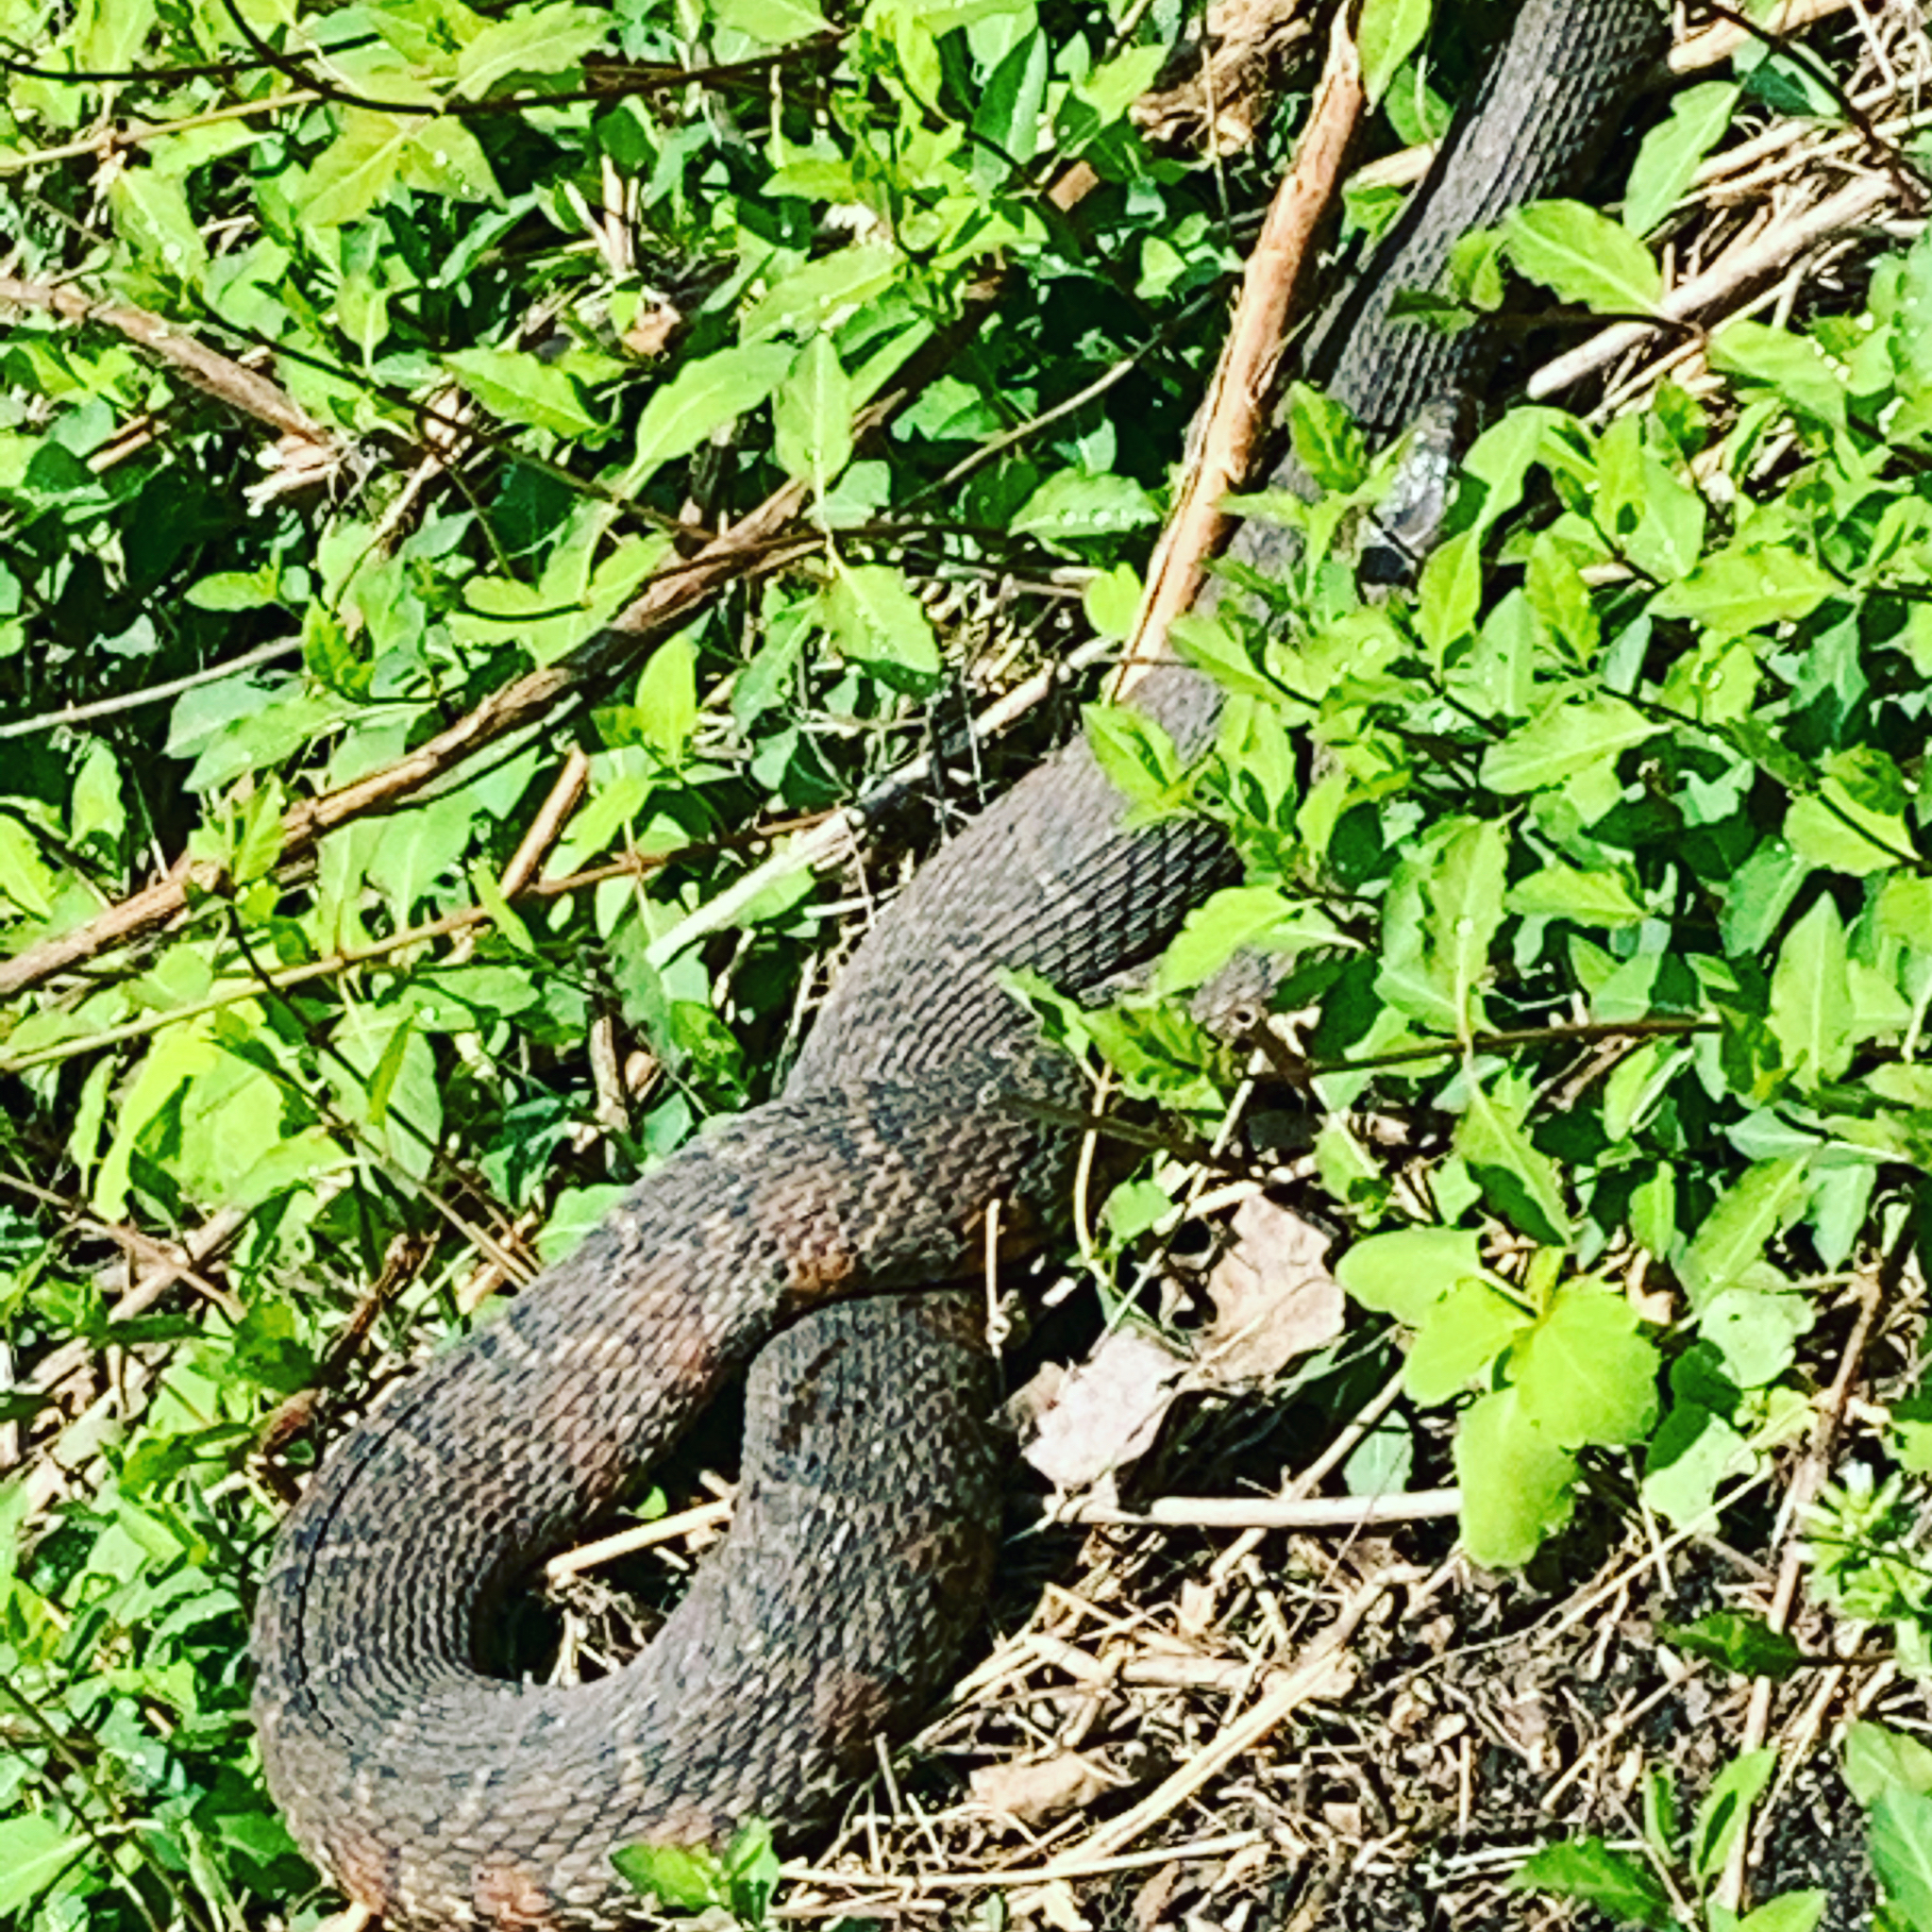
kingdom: Animalia
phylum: Chordata
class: Squamata
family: Colubridae
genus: Nerodia
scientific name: Nerodia sipedon
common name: Northern water snake
